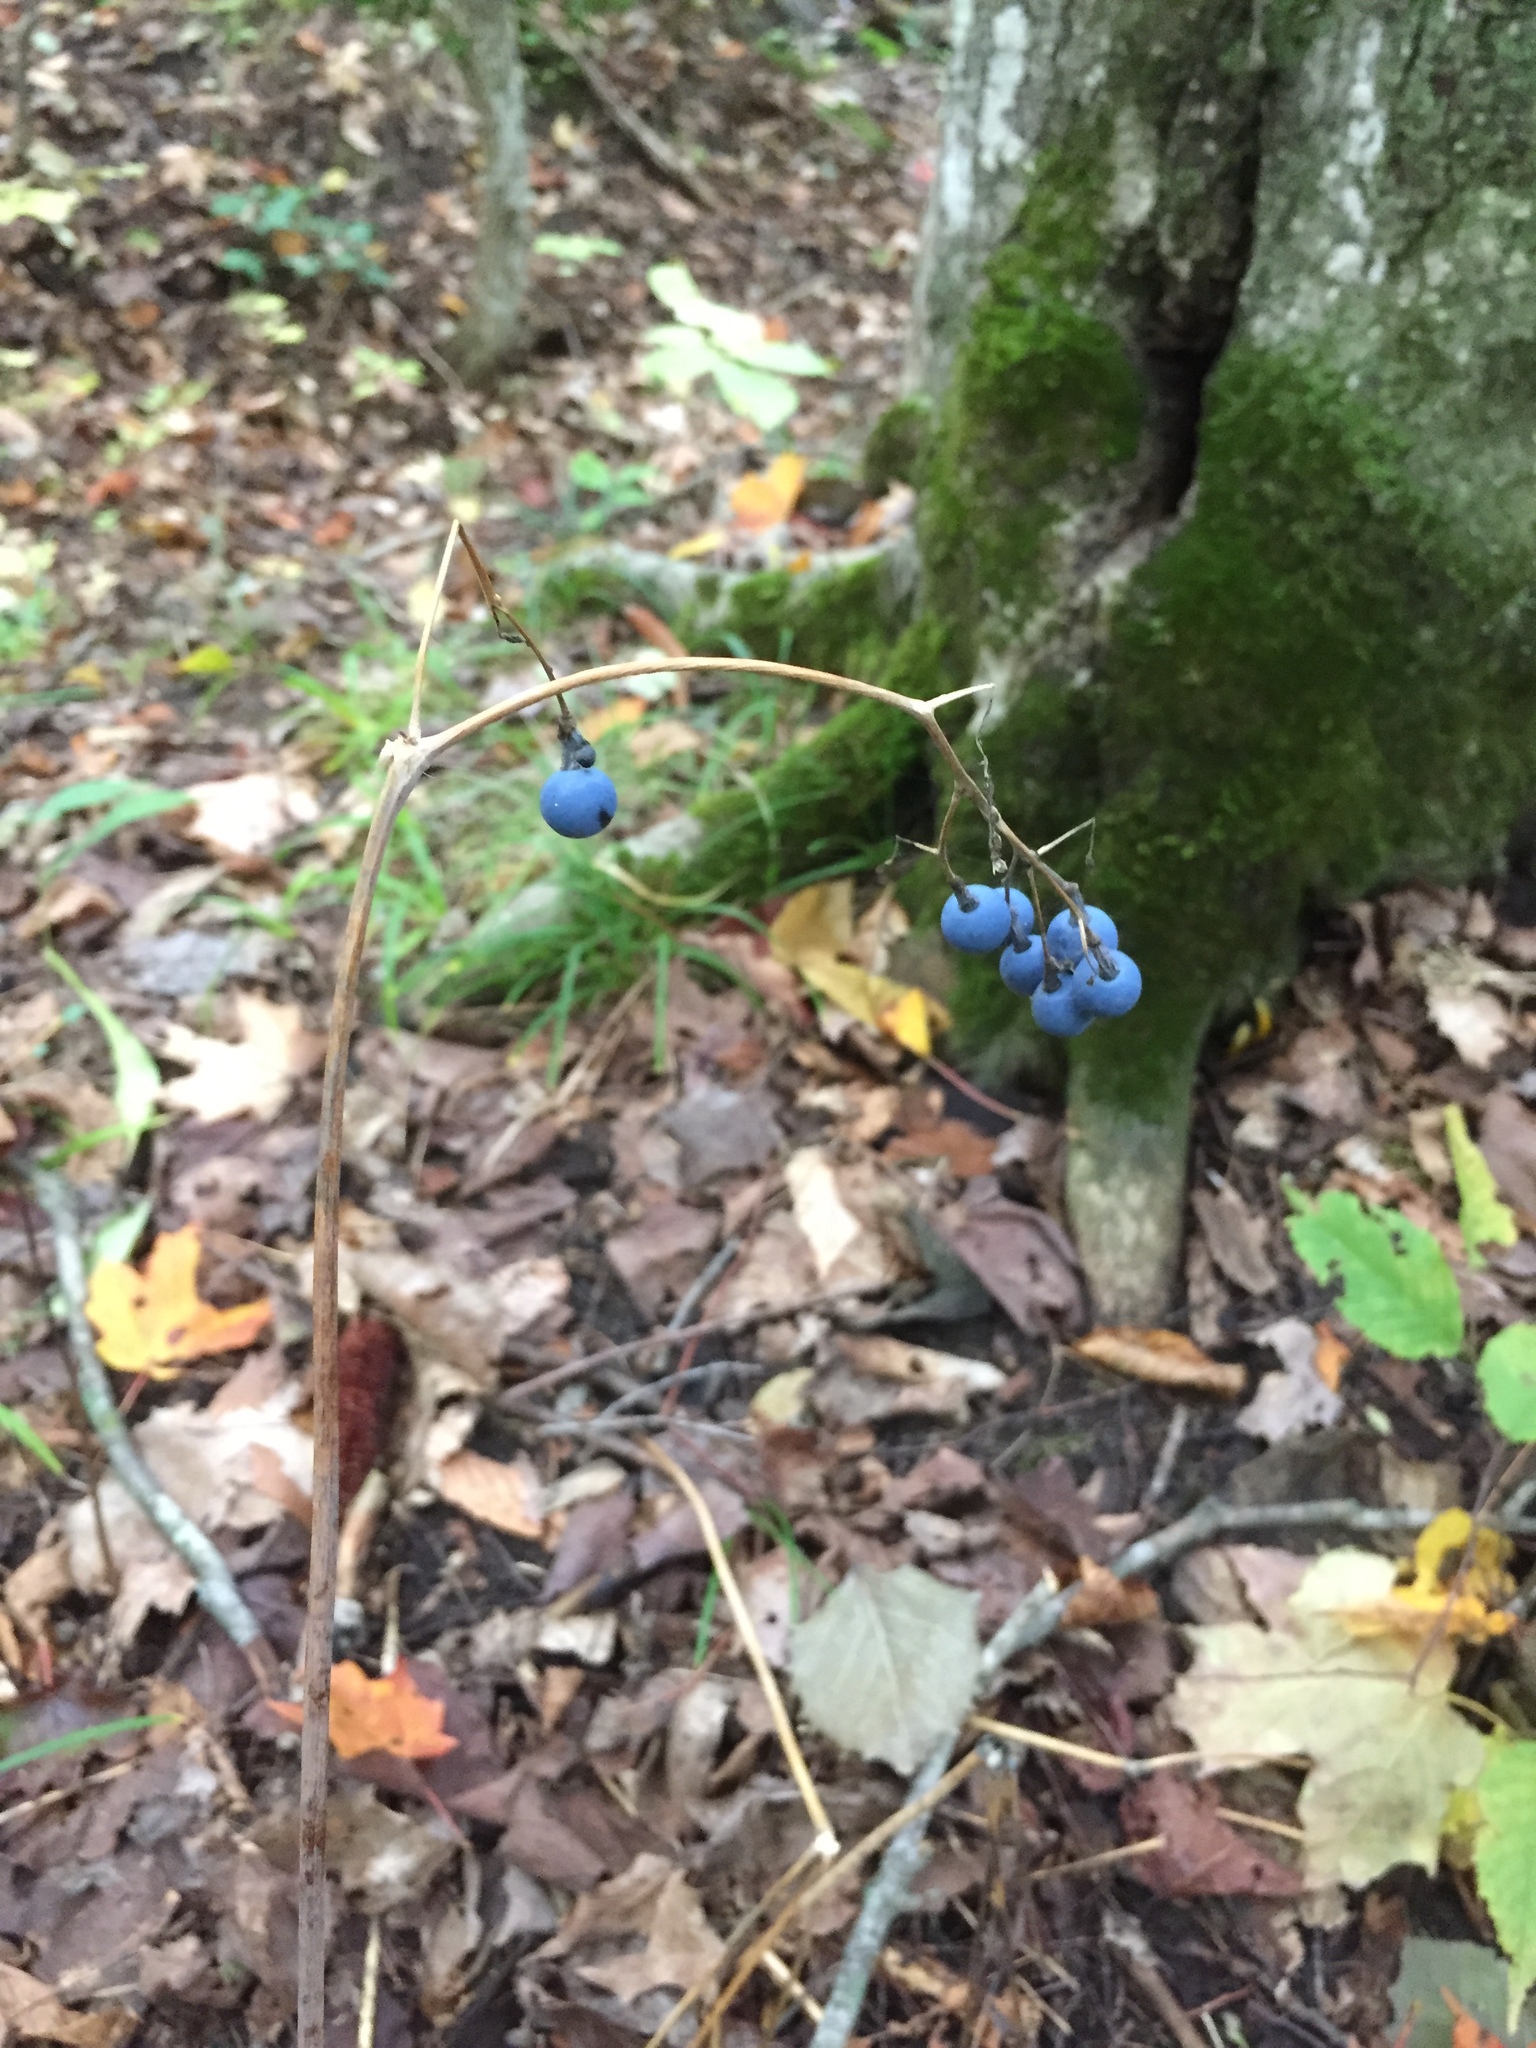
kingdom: Plantae
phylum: Tracheophyta
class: Magnoliopsida
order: Ranunculales
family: Berberidaceae
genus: Caulophyllum
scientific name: Caulophyllum thalictroides
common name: Blue cohosh
